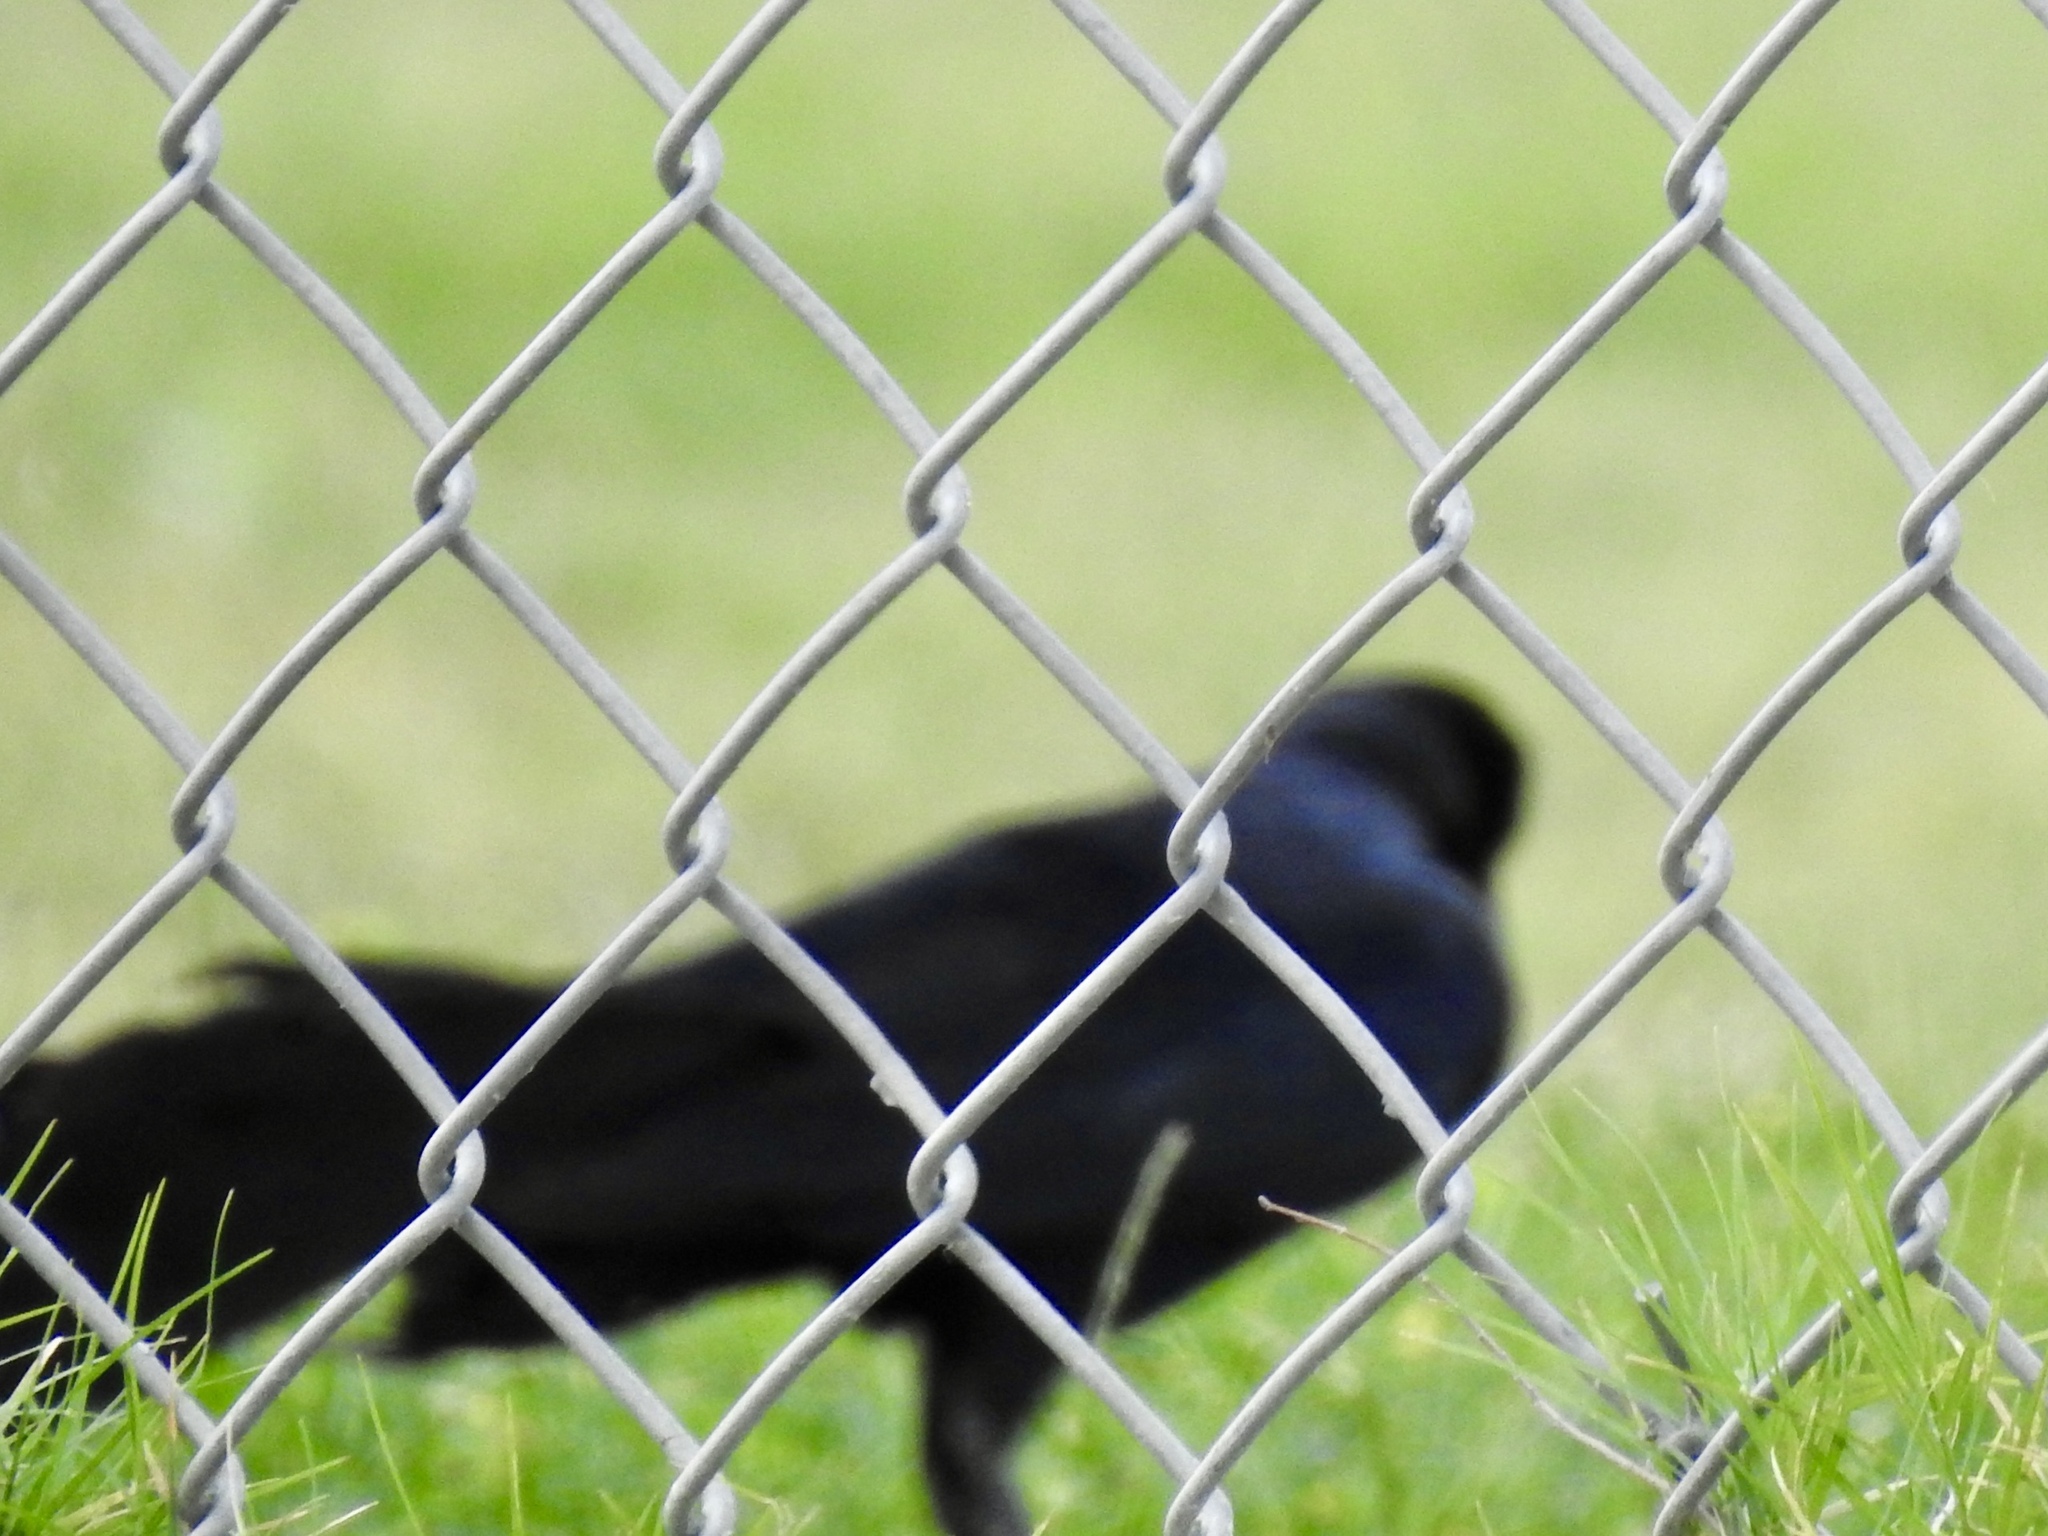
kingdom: Animalia
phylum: Chordata
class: Aves
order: Passeriformes
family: Icteridae
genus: Quiscalus
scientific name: Quiscalus mexicanus
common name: Great-tailed grackle
